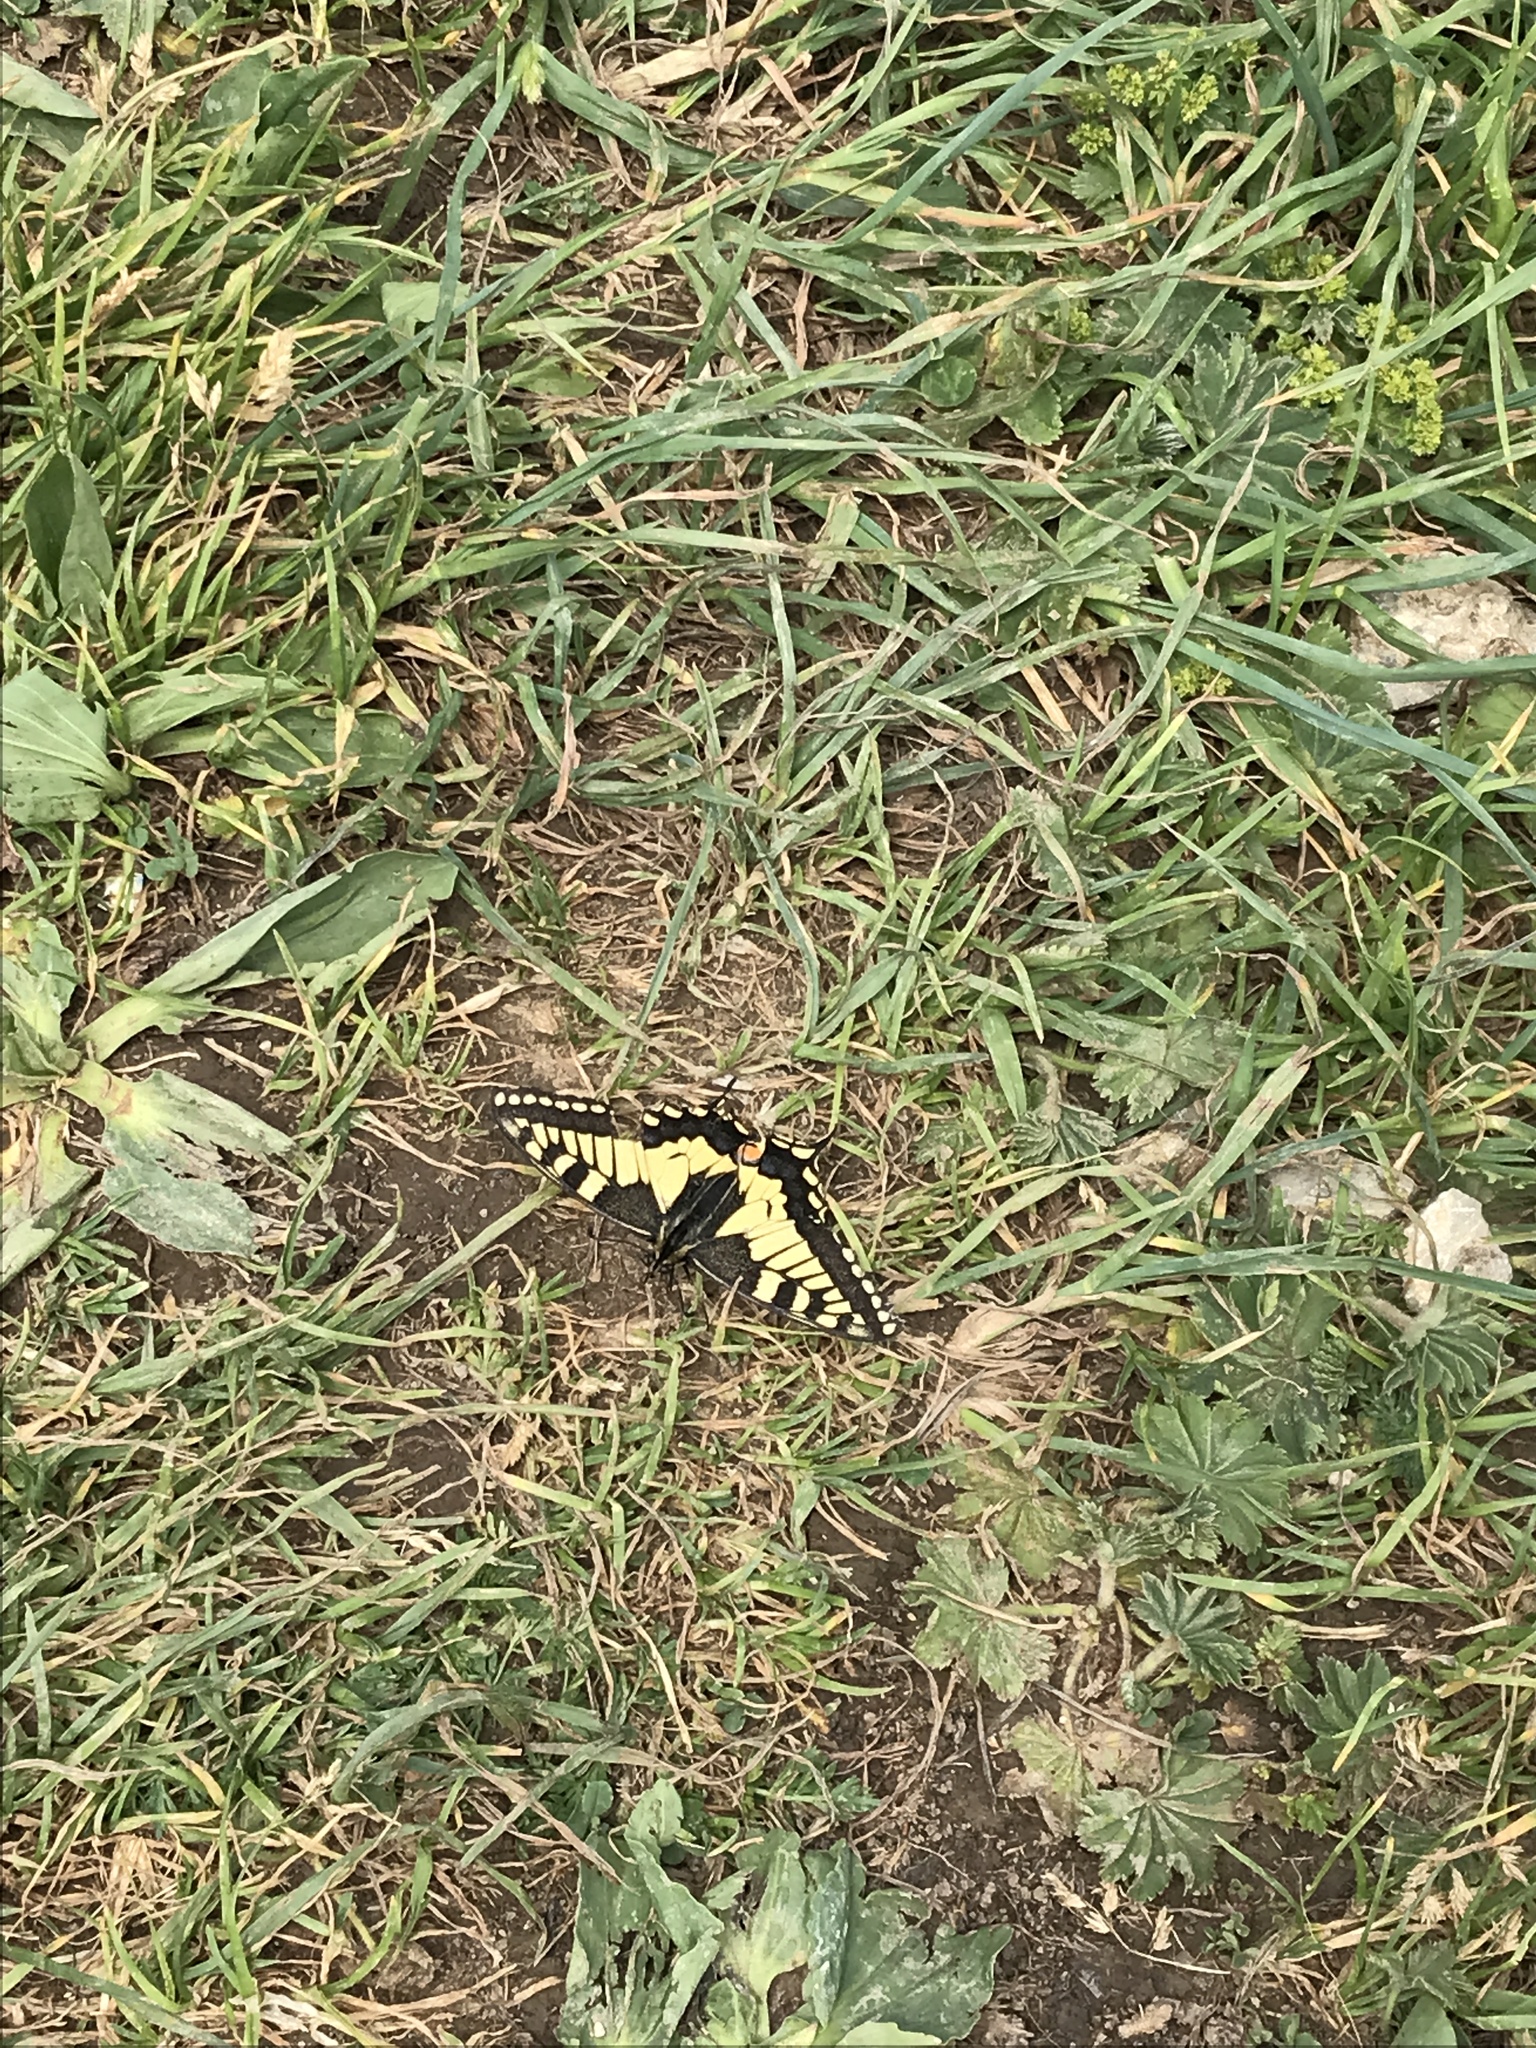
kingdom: Animalia
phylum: Arthropoda
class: Insecta
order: Lepidoptera
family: Papilionidae
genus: Papilio
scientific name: Papilio machaon
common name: Swallowtail
